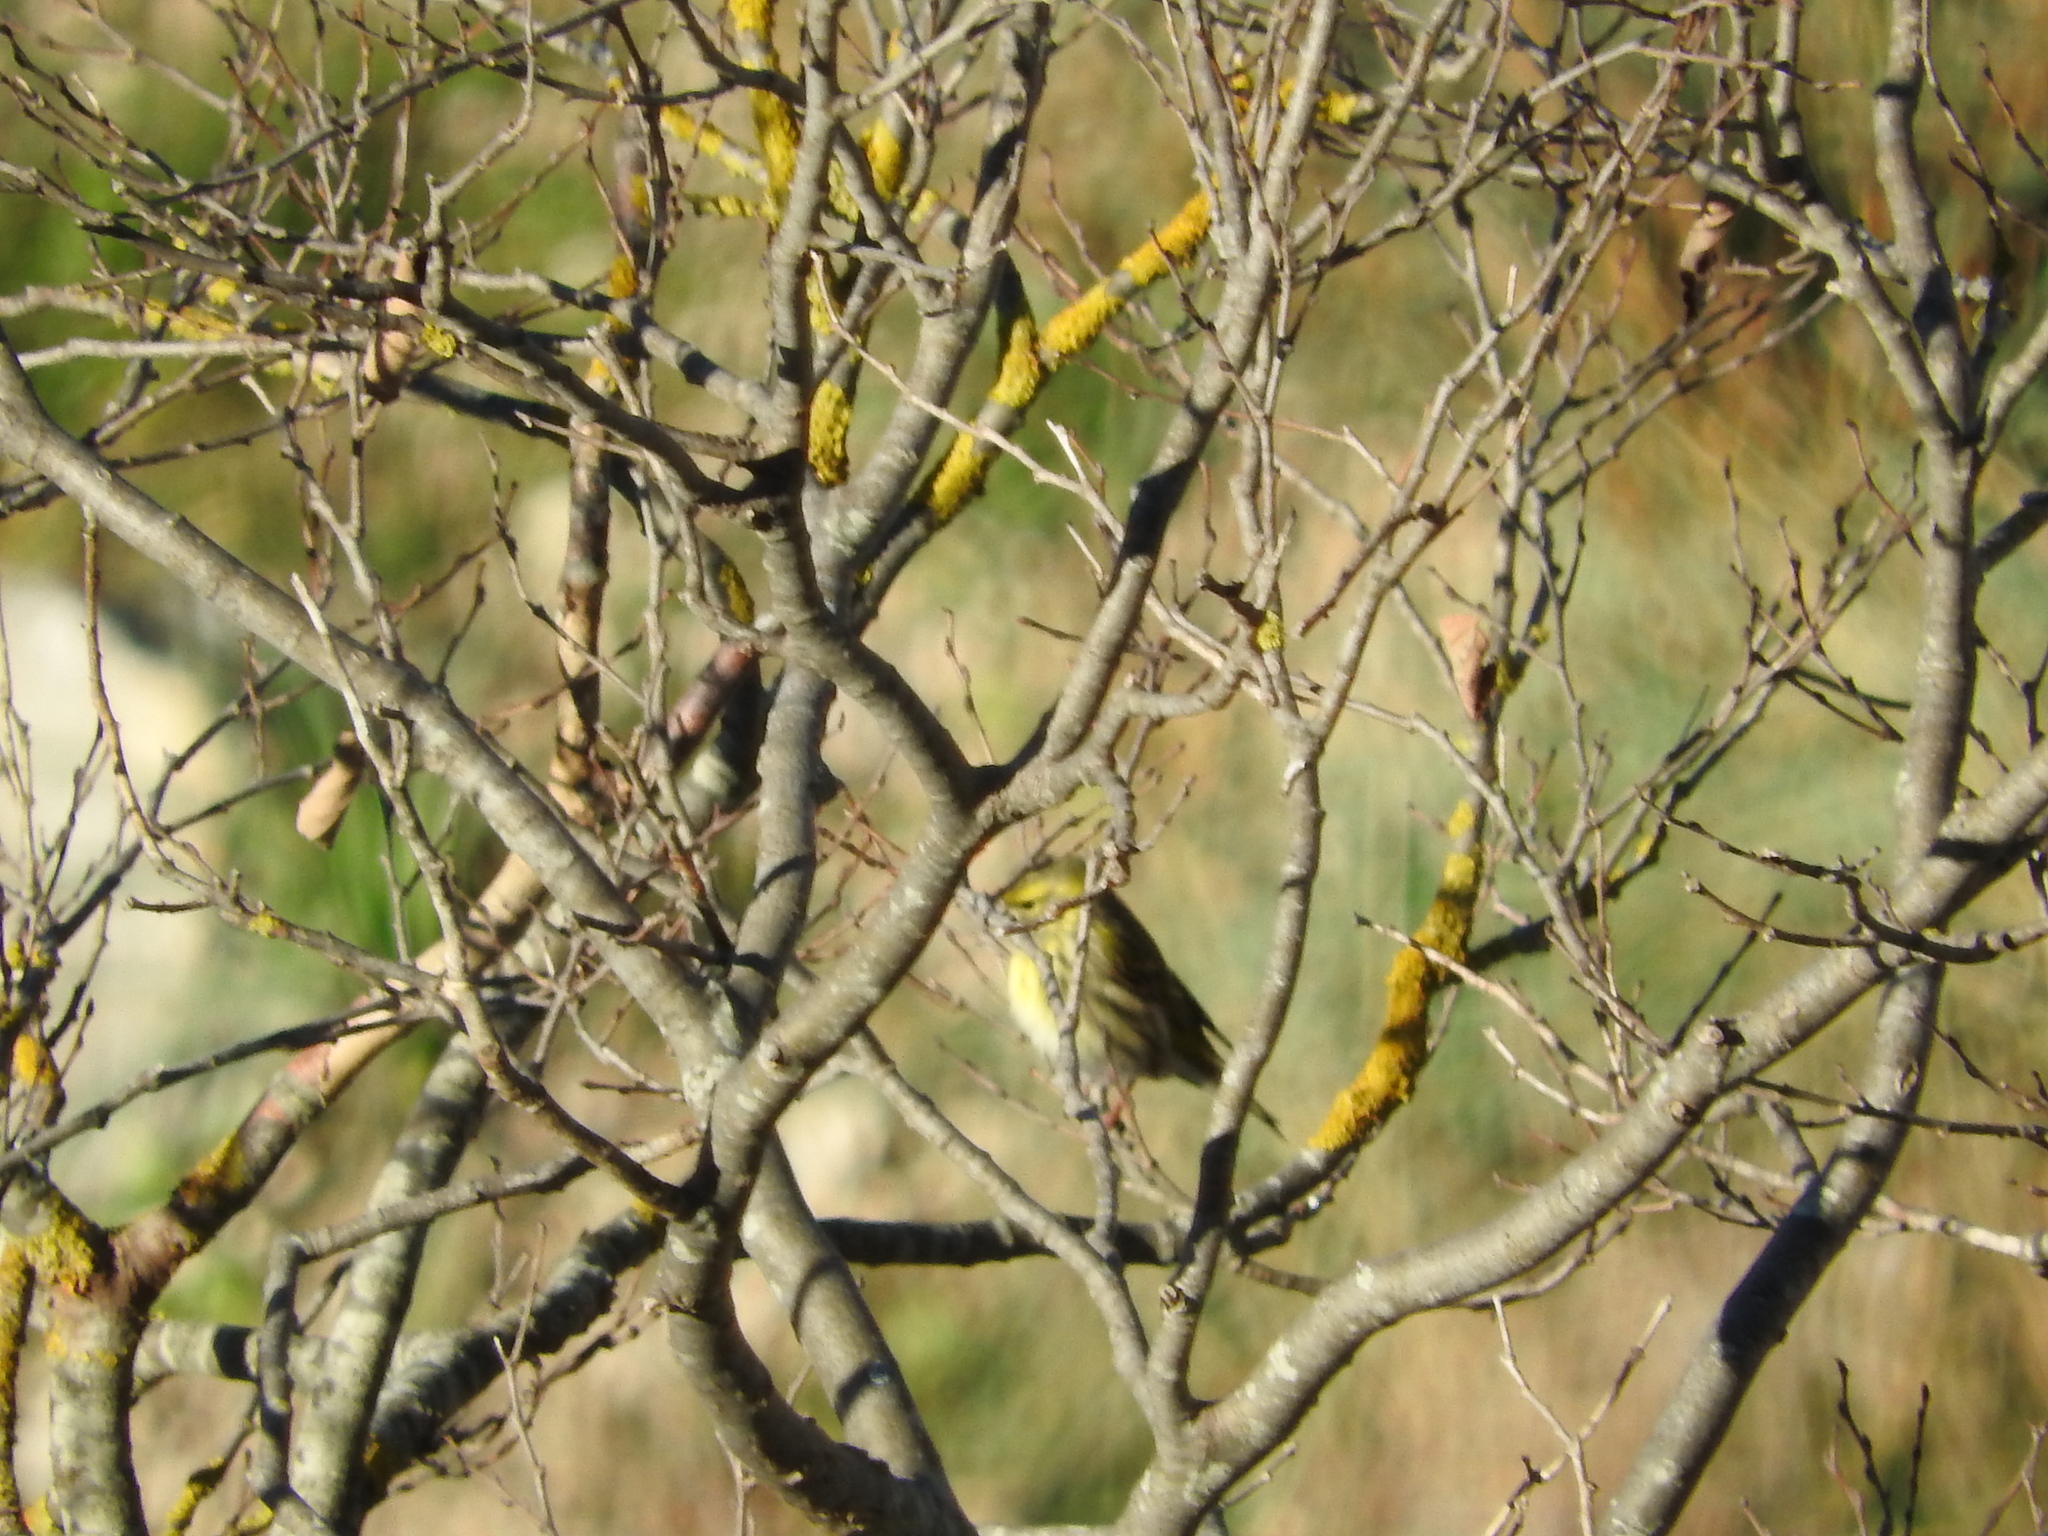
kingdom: Animalia
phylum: Chordata
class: Aves
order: Passeriformes
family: Fringillidae
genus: Serinus
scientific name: Serinus serinus
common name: European serin
